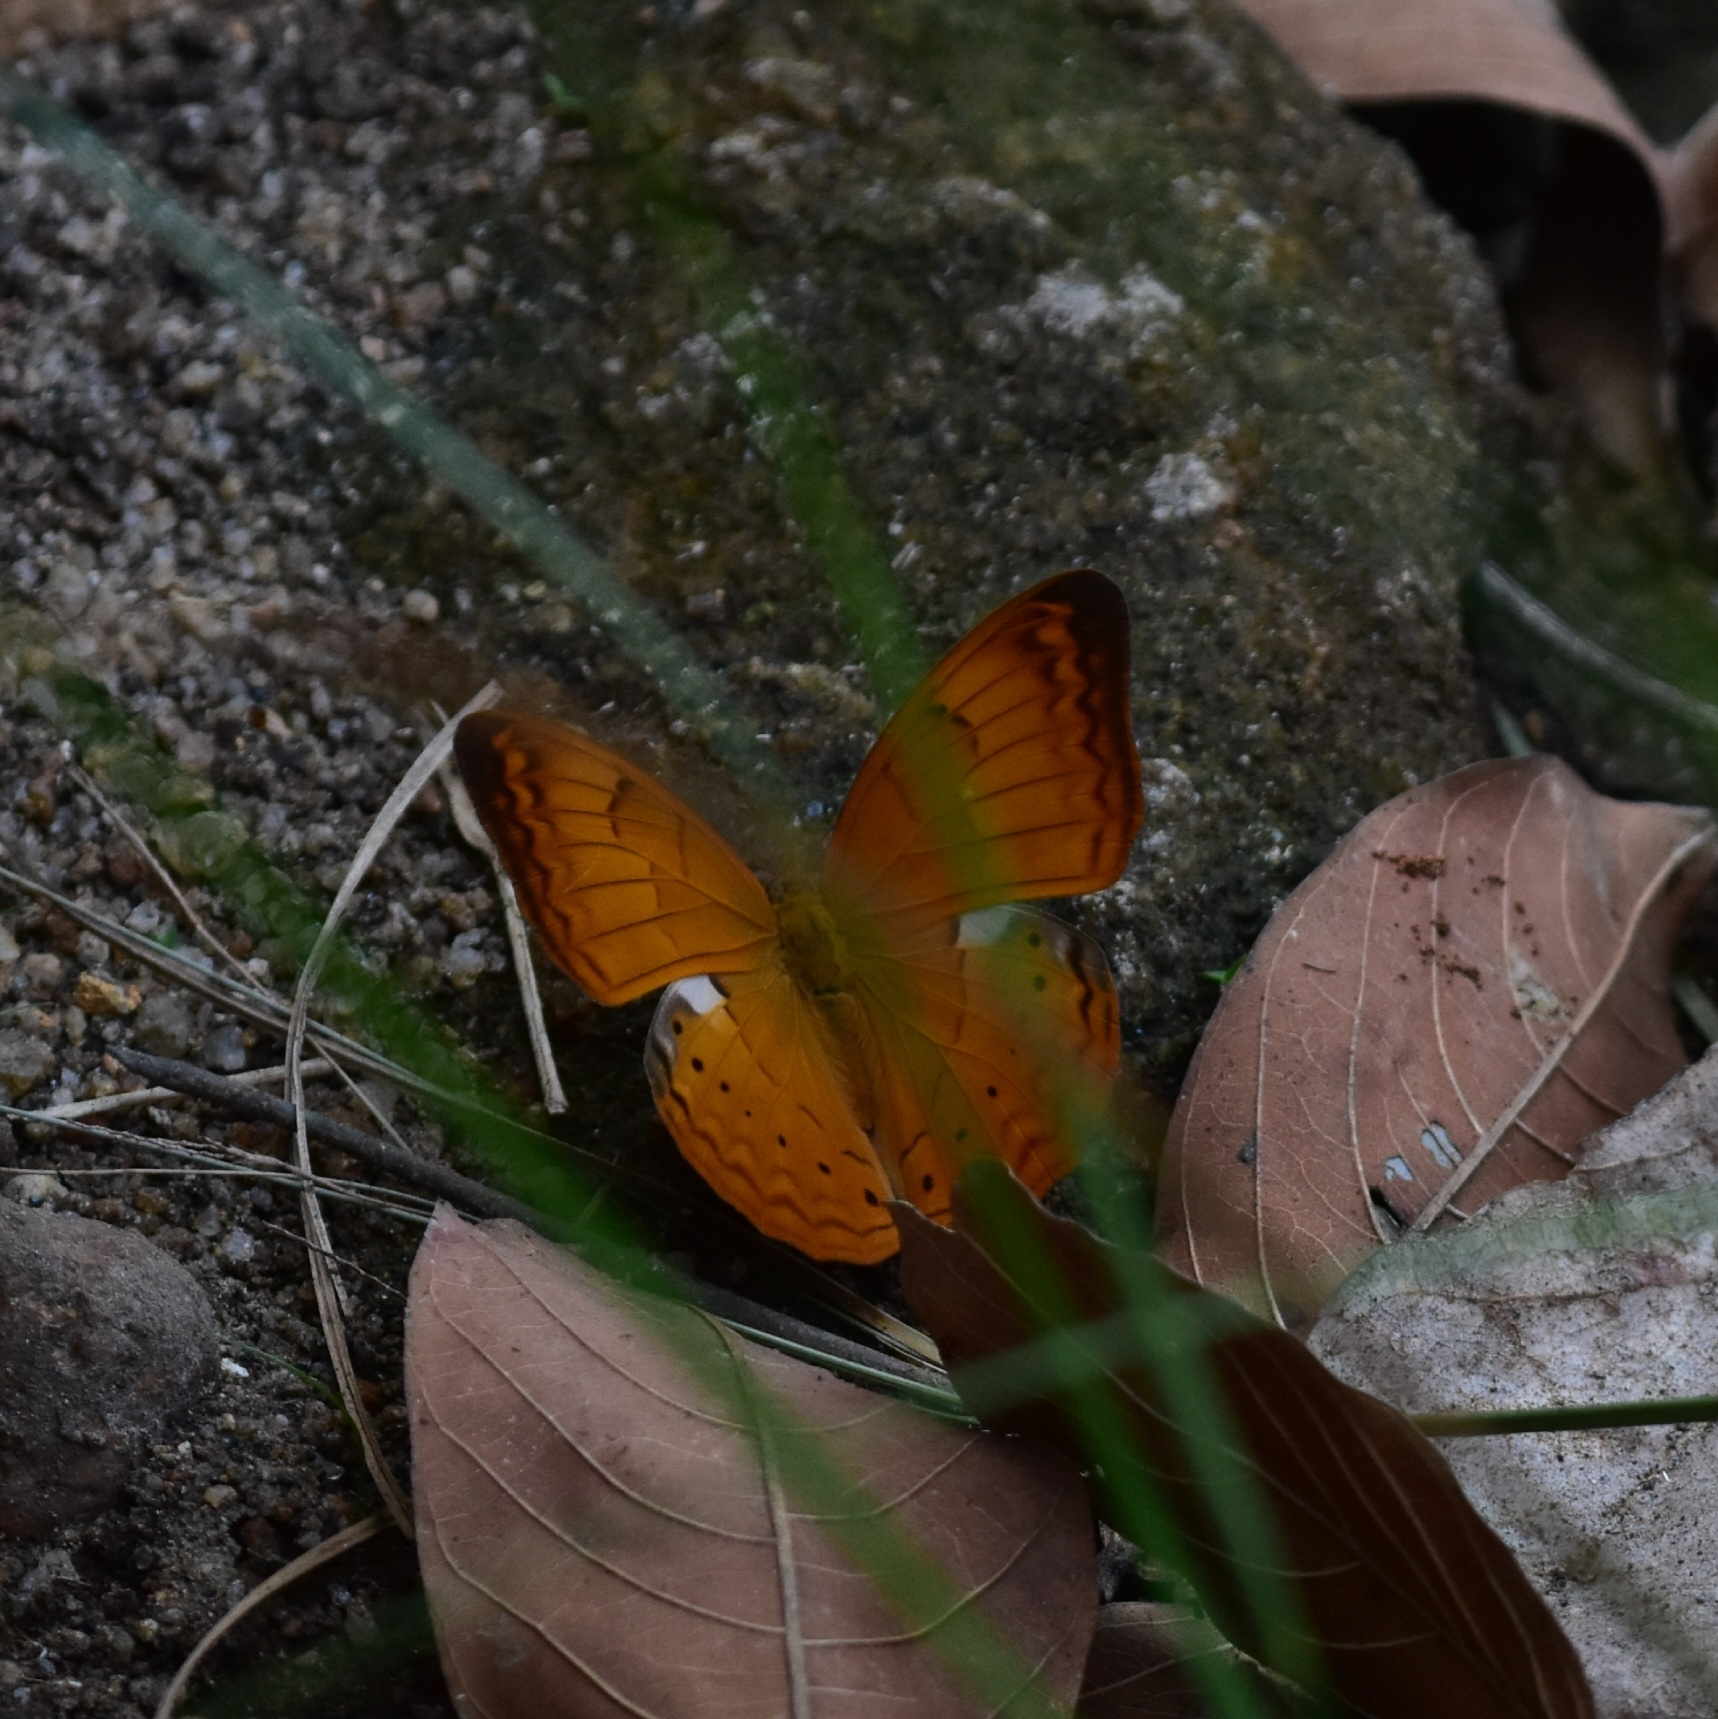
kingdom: Animalia
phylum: Arthropoda
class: Insecta
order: Lepidoptera
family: Nymphalidae
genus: Cirrochroa
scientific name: Cirrochroa thais
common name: Tamil yeoman
